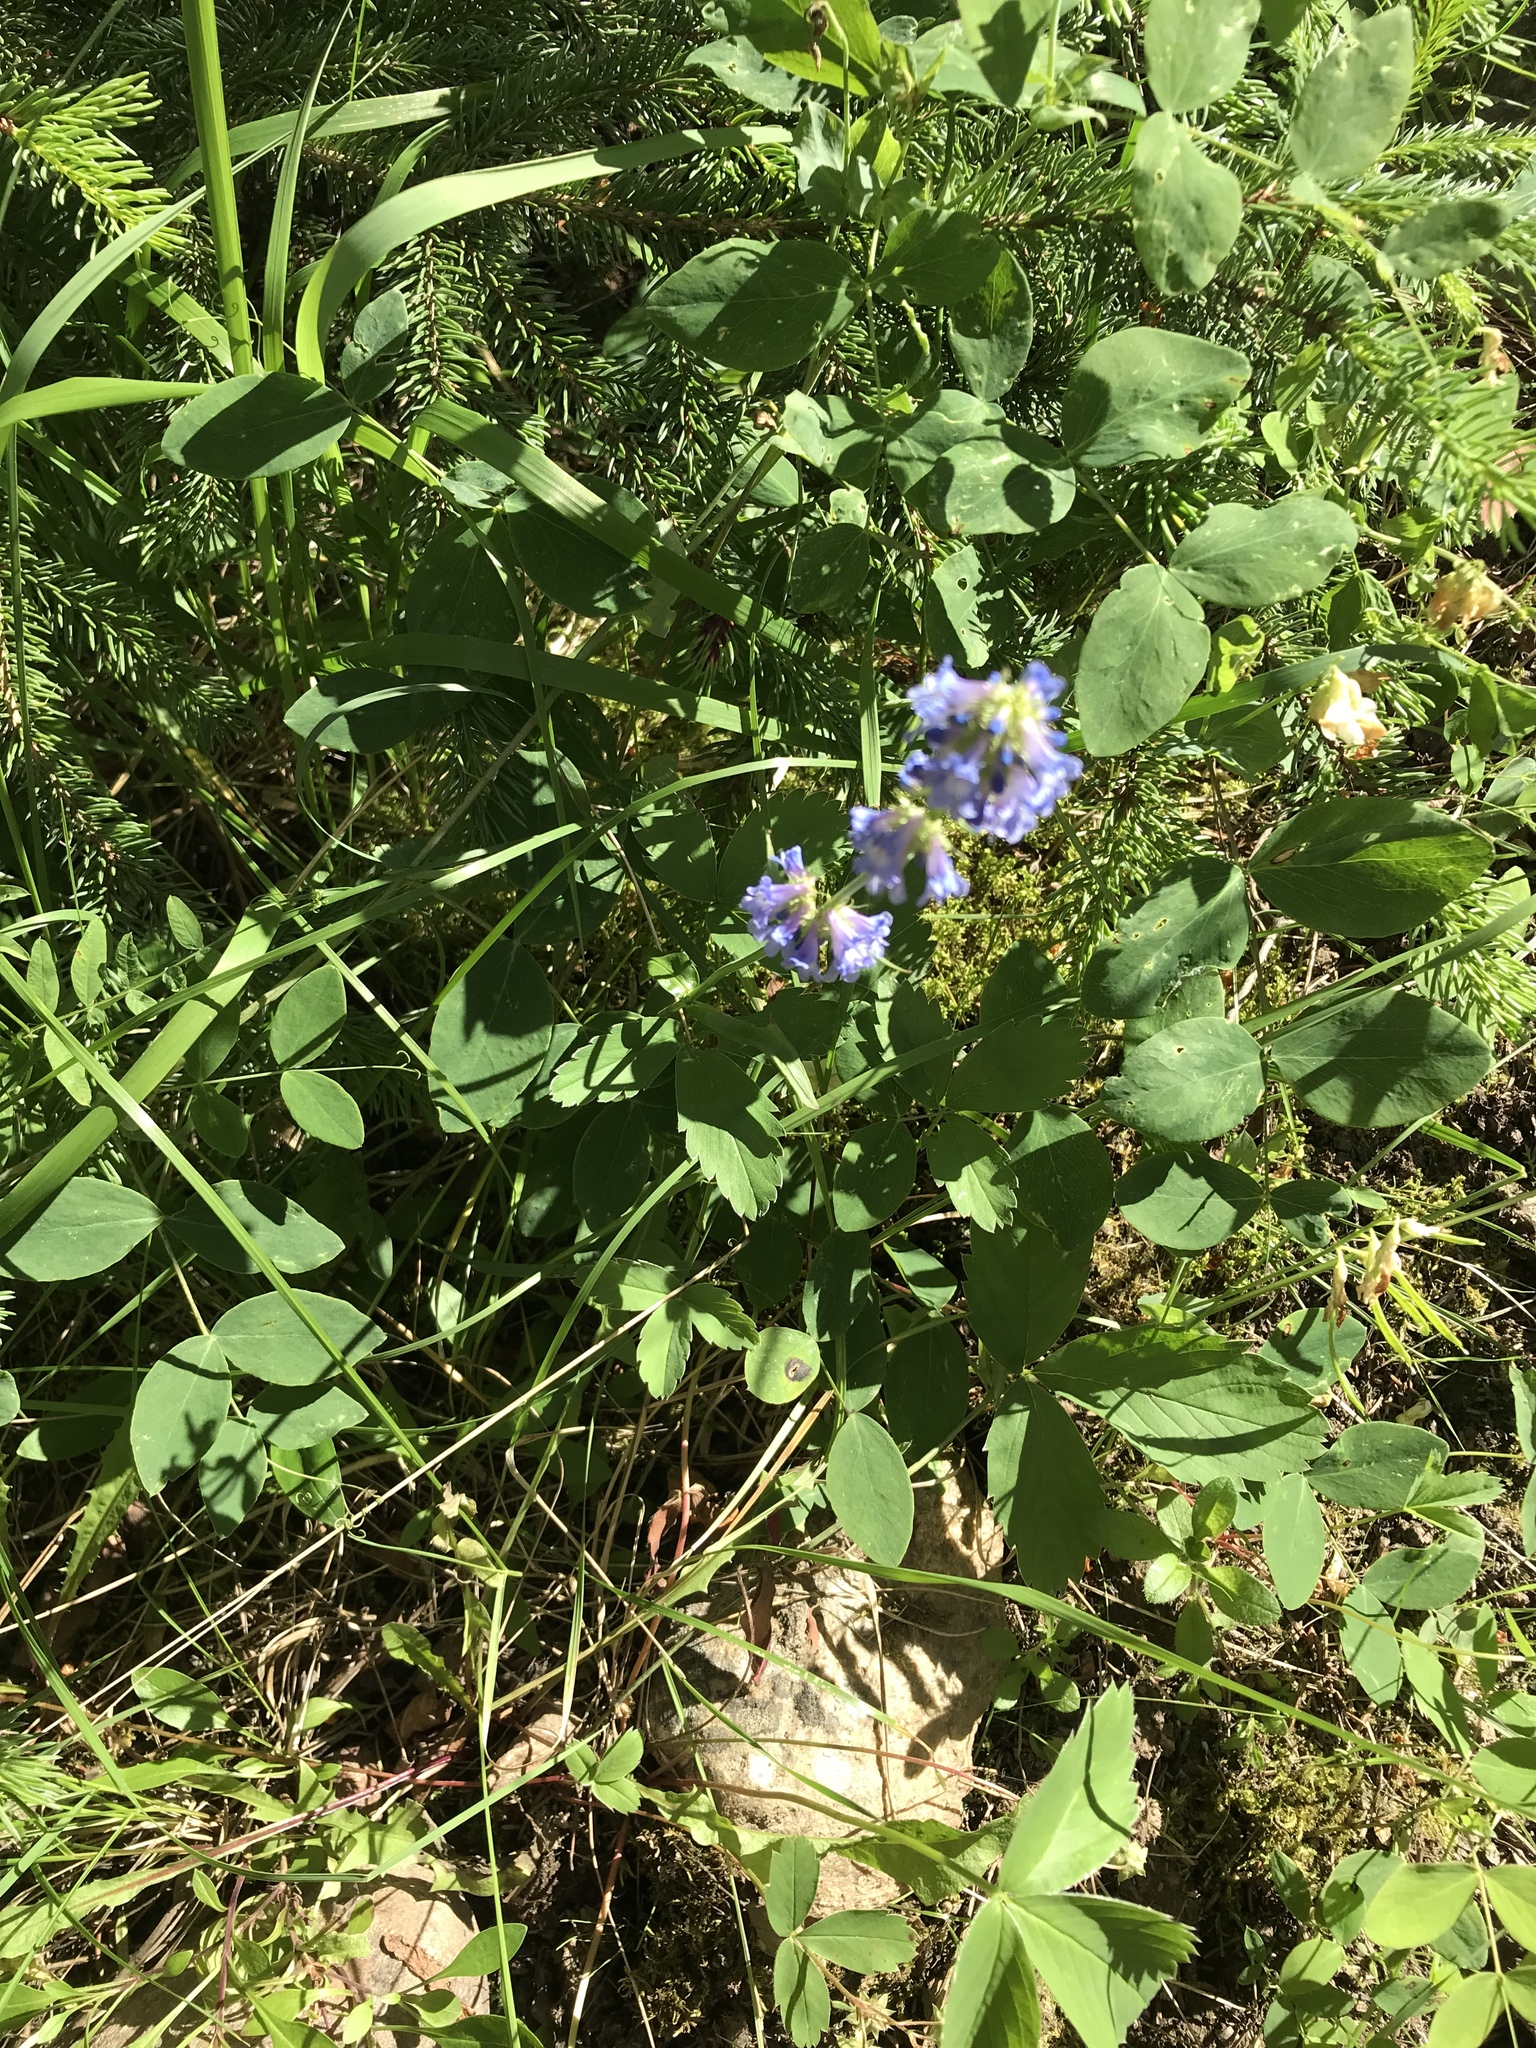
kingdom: Plantae
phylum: Tracheophyta
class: Magnoliopsida
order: Lamiales
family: Plantaginaceae
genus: Penstemon
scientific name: Penstemon procerus
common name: Small-flower penstemon
